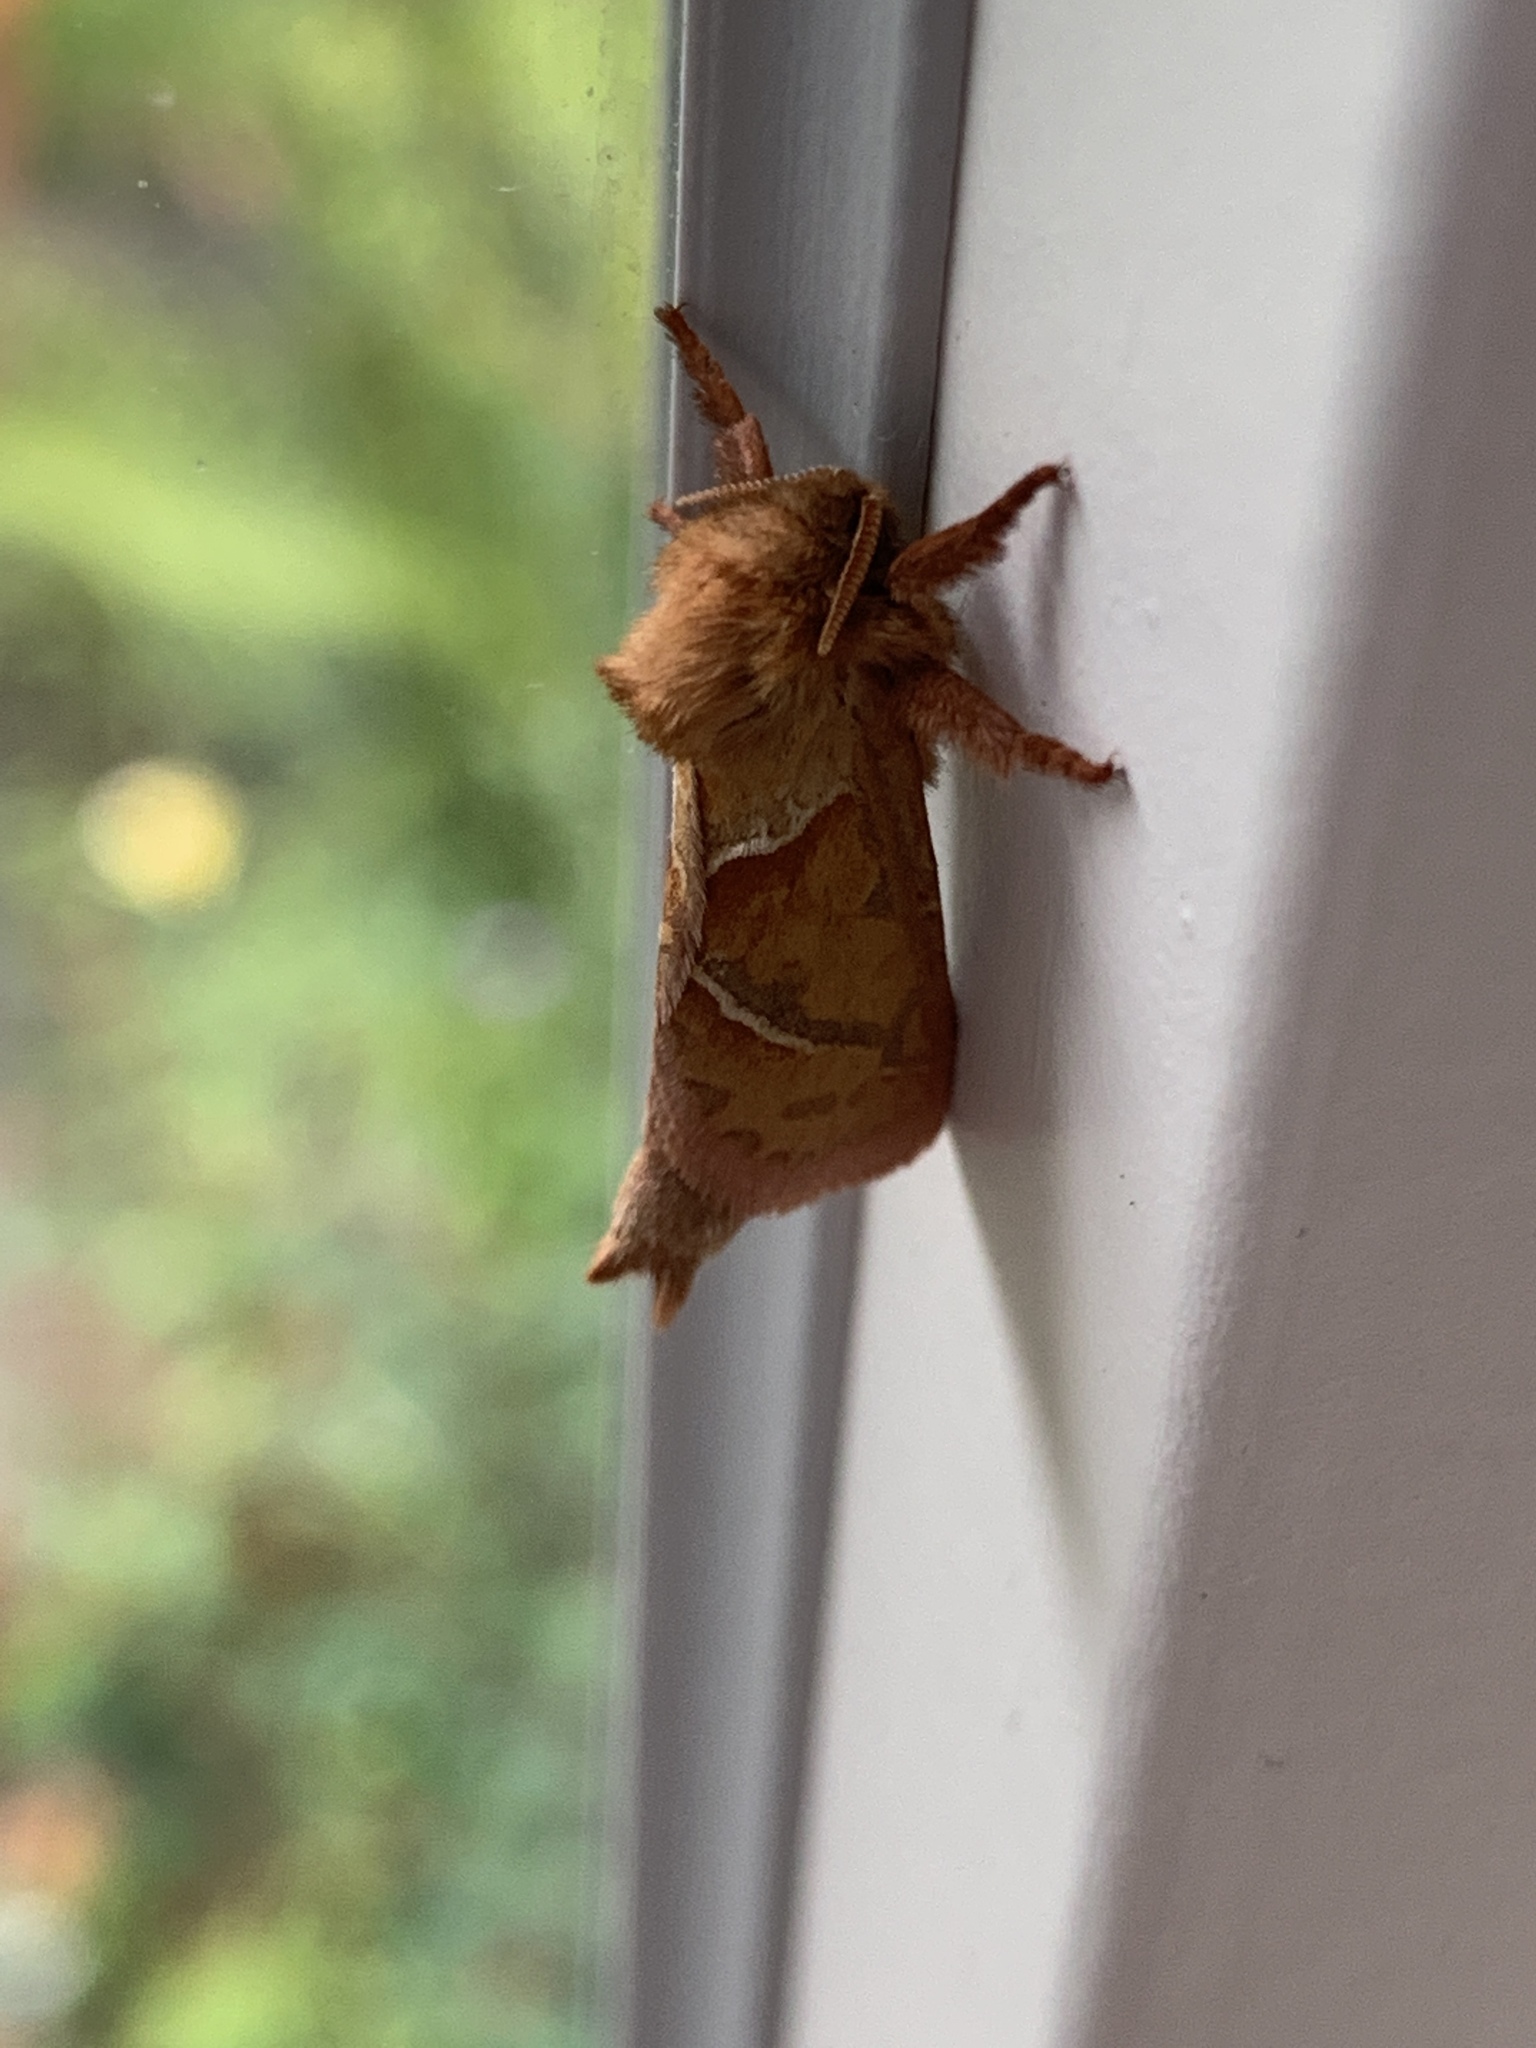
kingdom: Animalia
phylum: Arthropoda
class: Insecta
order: Lepidoptera
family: Hepialidae
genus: Triodia
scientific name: Triodia sylvina
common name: Orange swift
